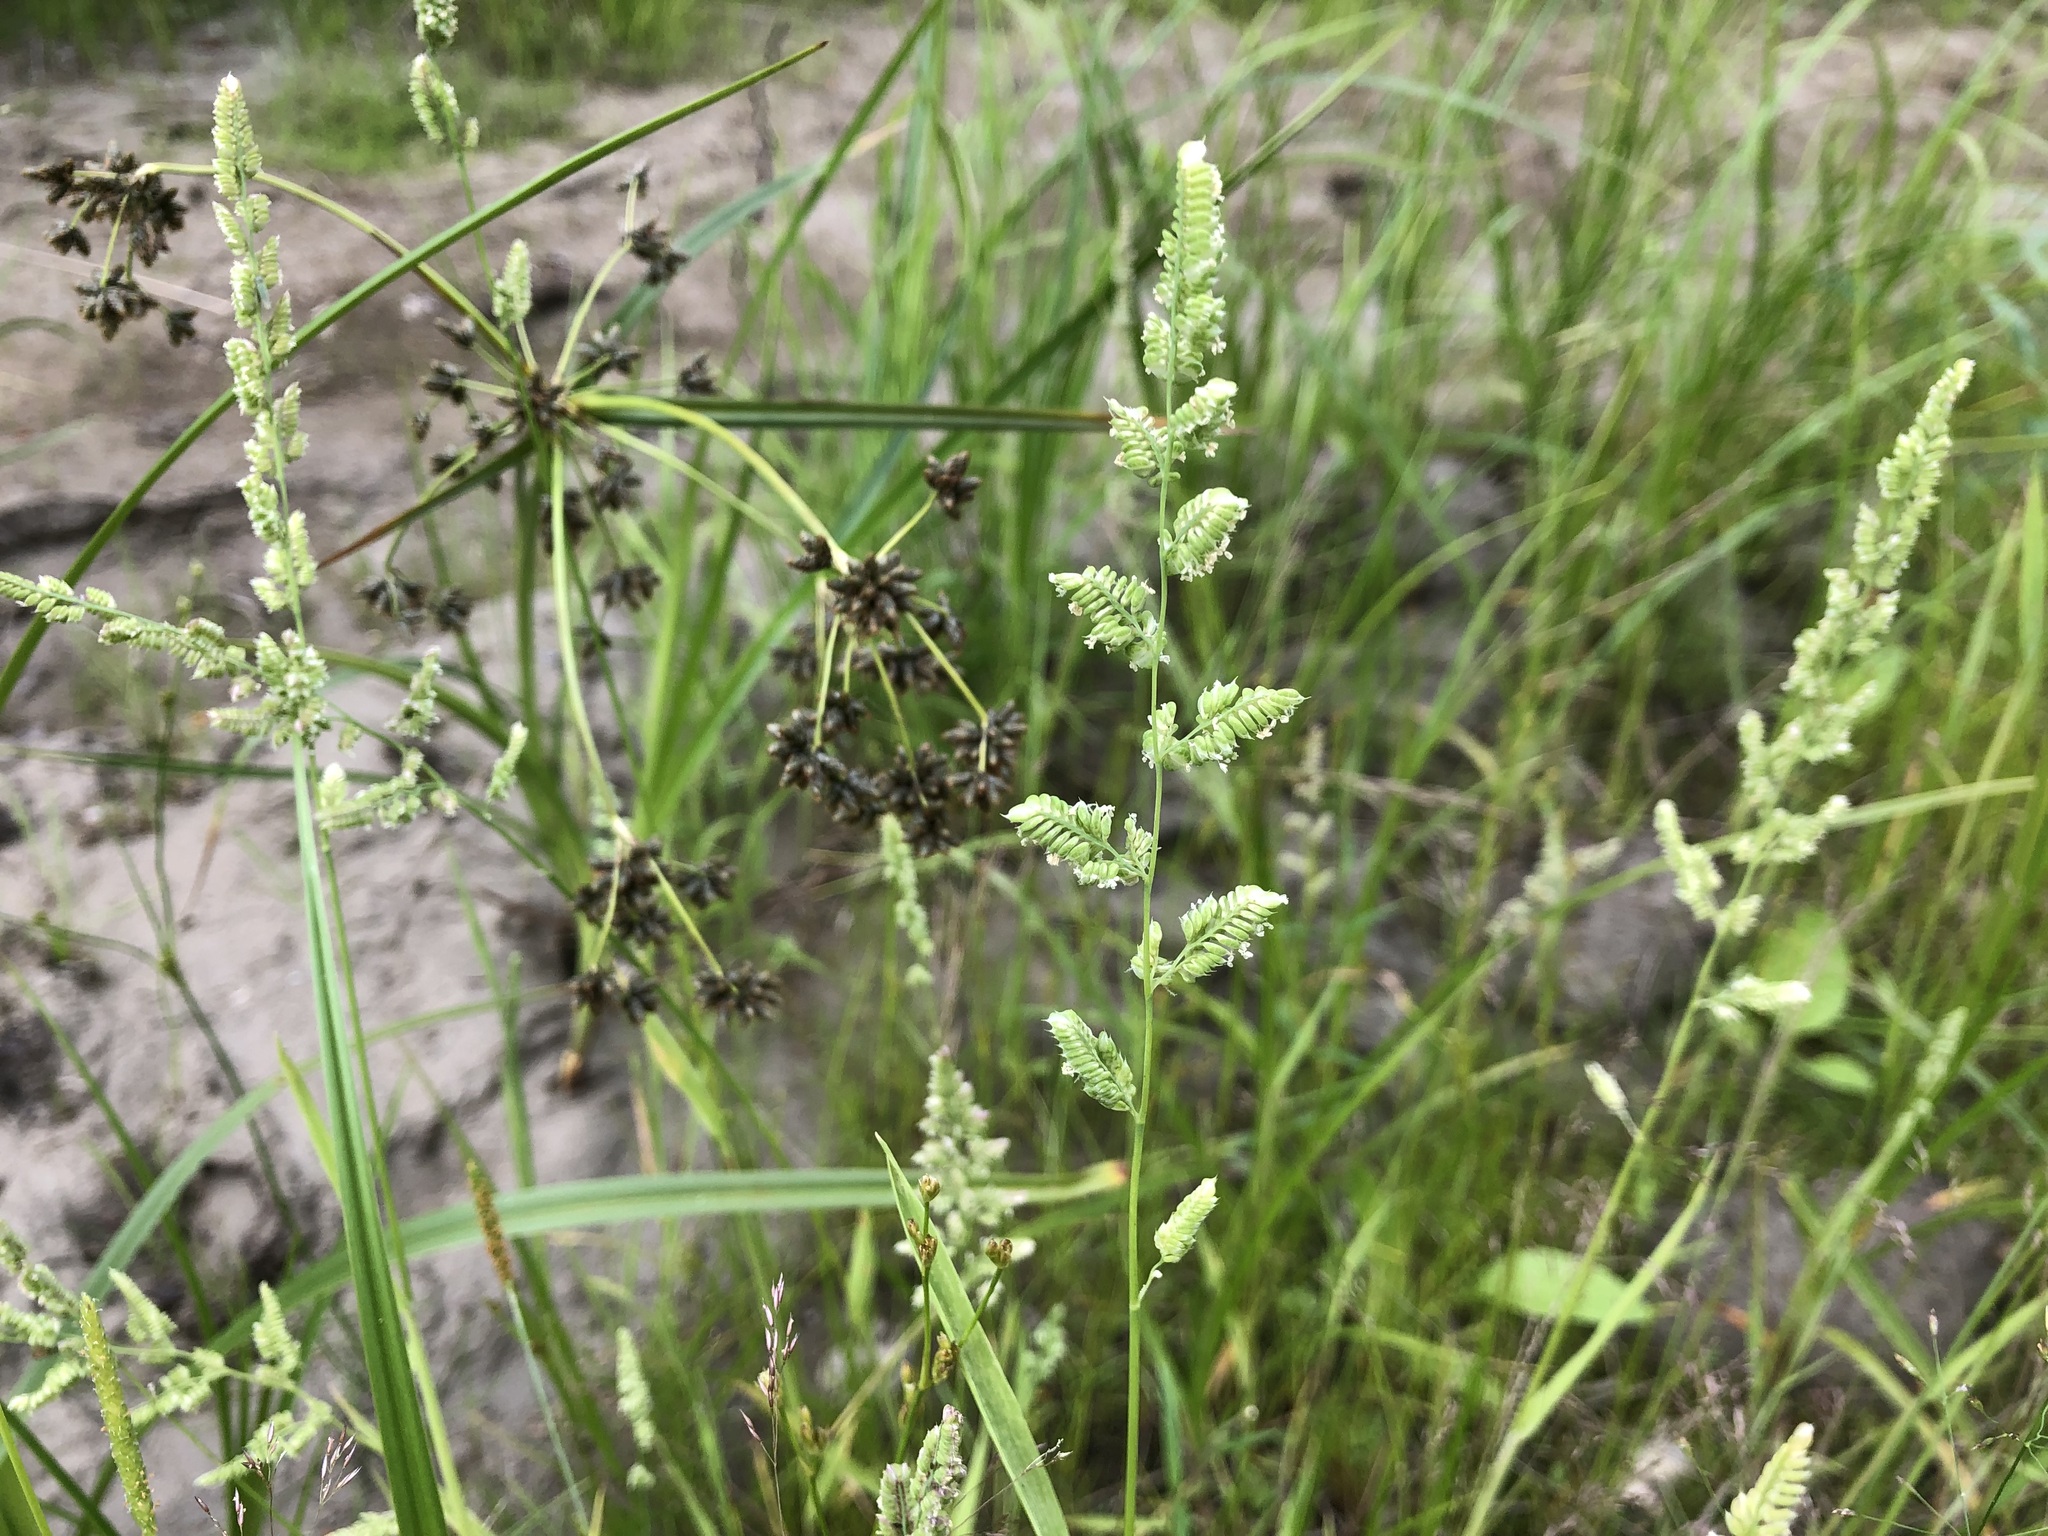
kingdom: Plantae
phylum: Tracheophyta
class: Liliopsida
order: Poales
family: Poaceae
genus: Beckmannia
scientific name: Beckmannia syzigachne
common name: American slough-grass
